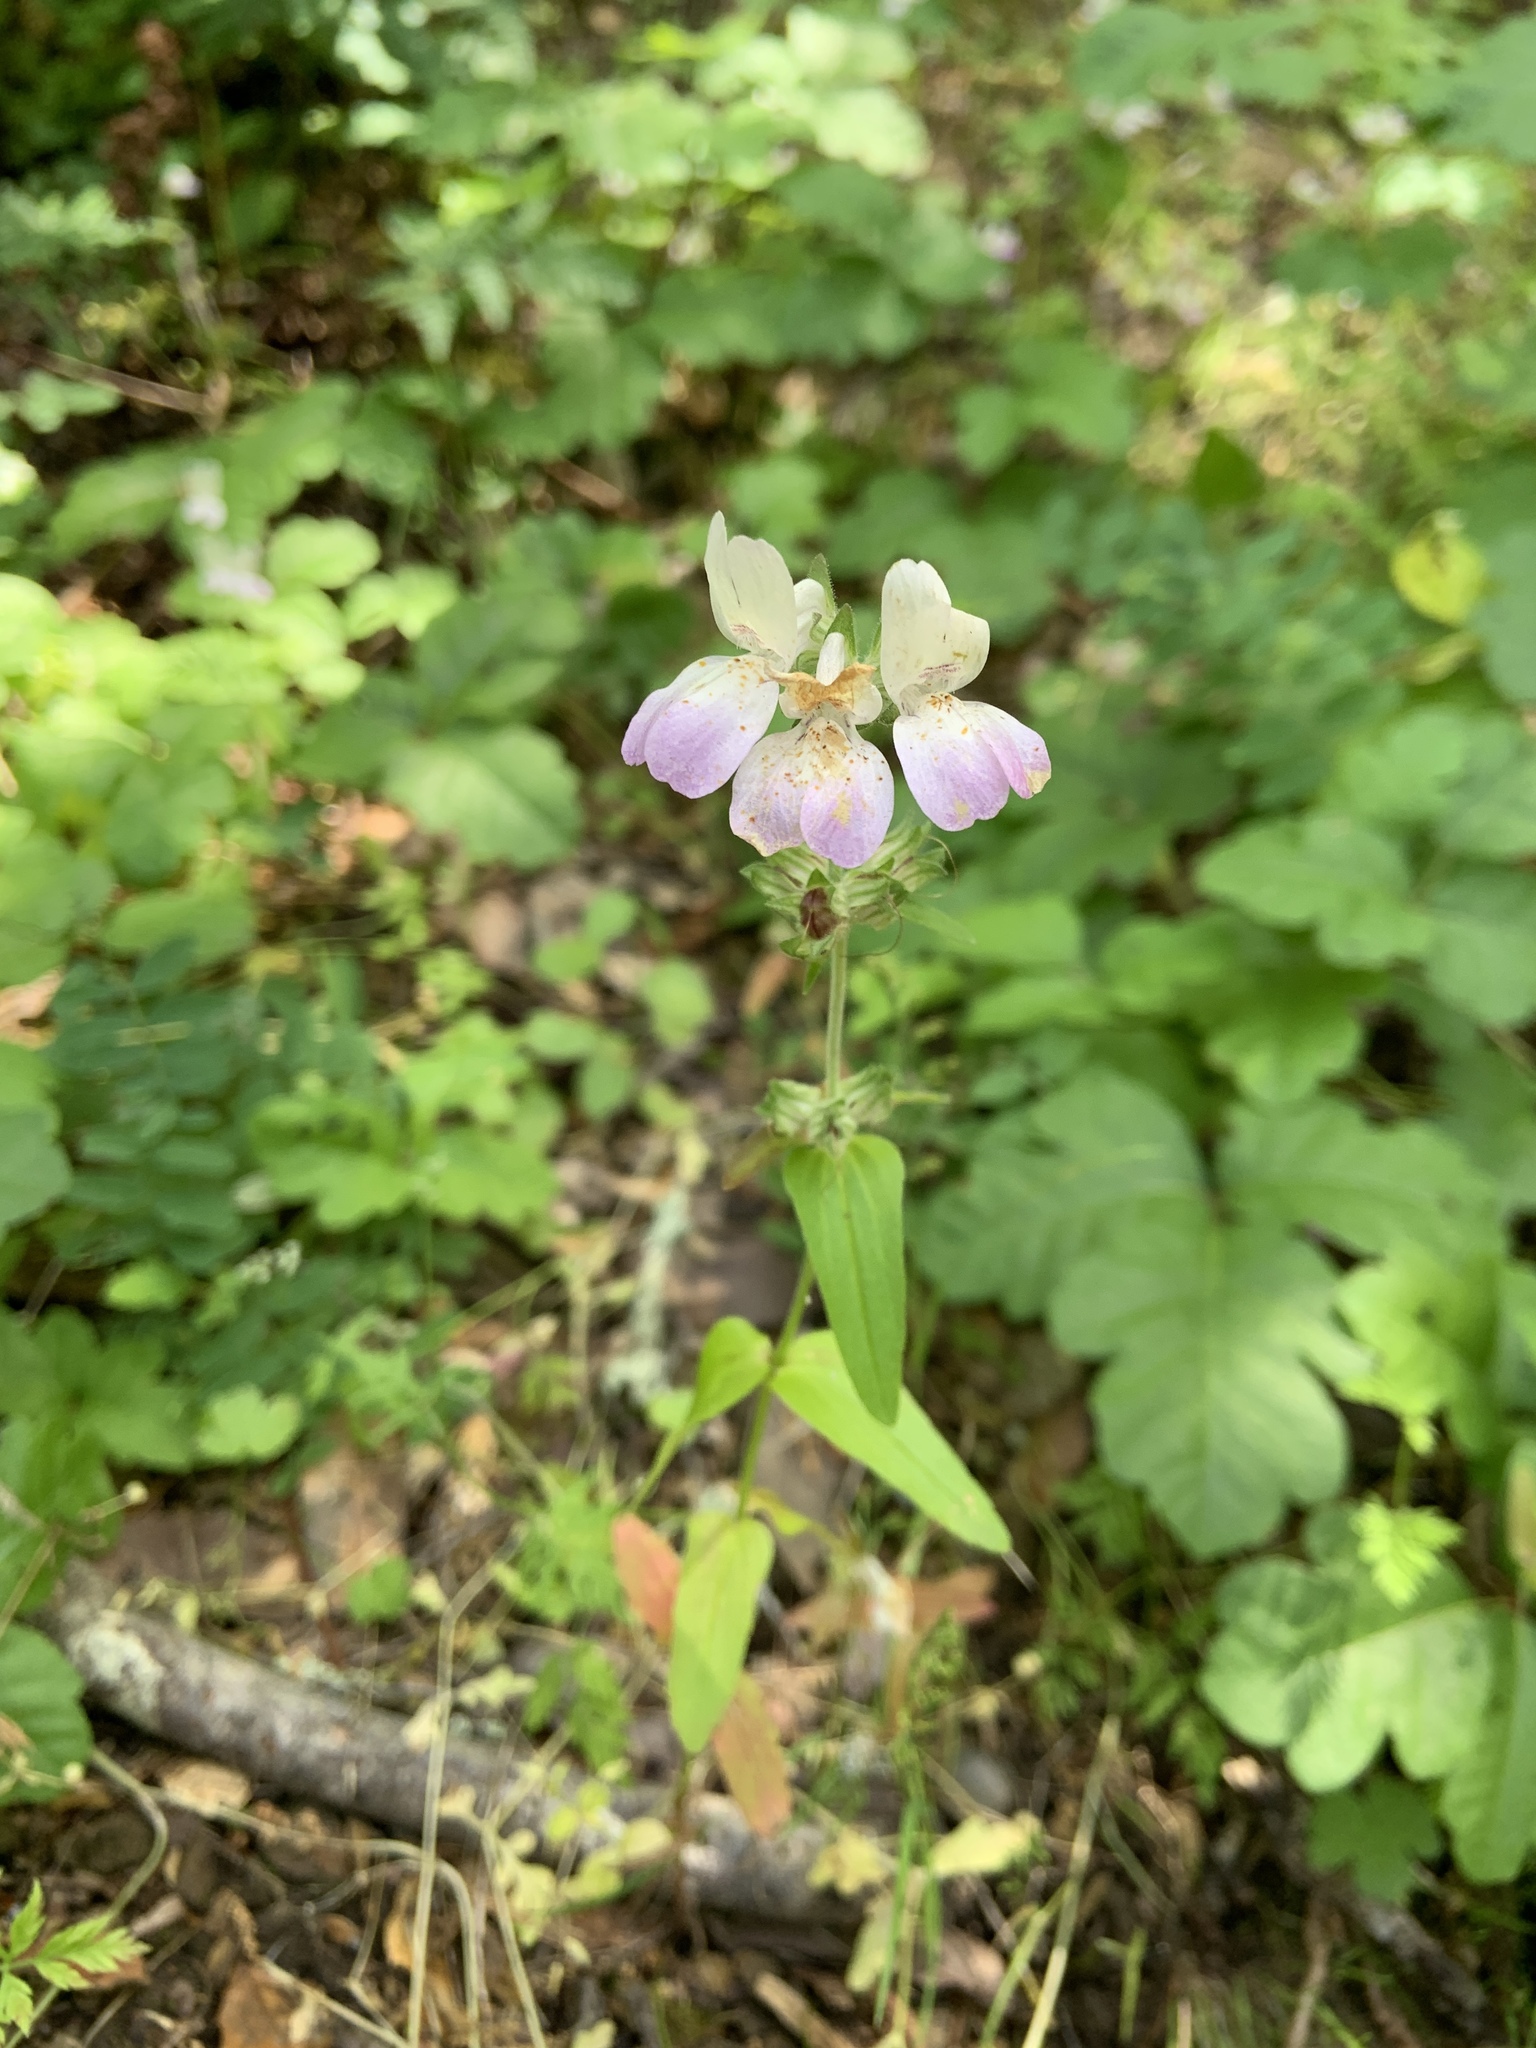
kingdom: Plantae
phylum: Tracheophyta
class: Magnoliopsida
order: Lamiales
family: Plantaginaceae
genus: Collinsia
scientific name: Collinsia heterophylla
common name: Chinese-houses
